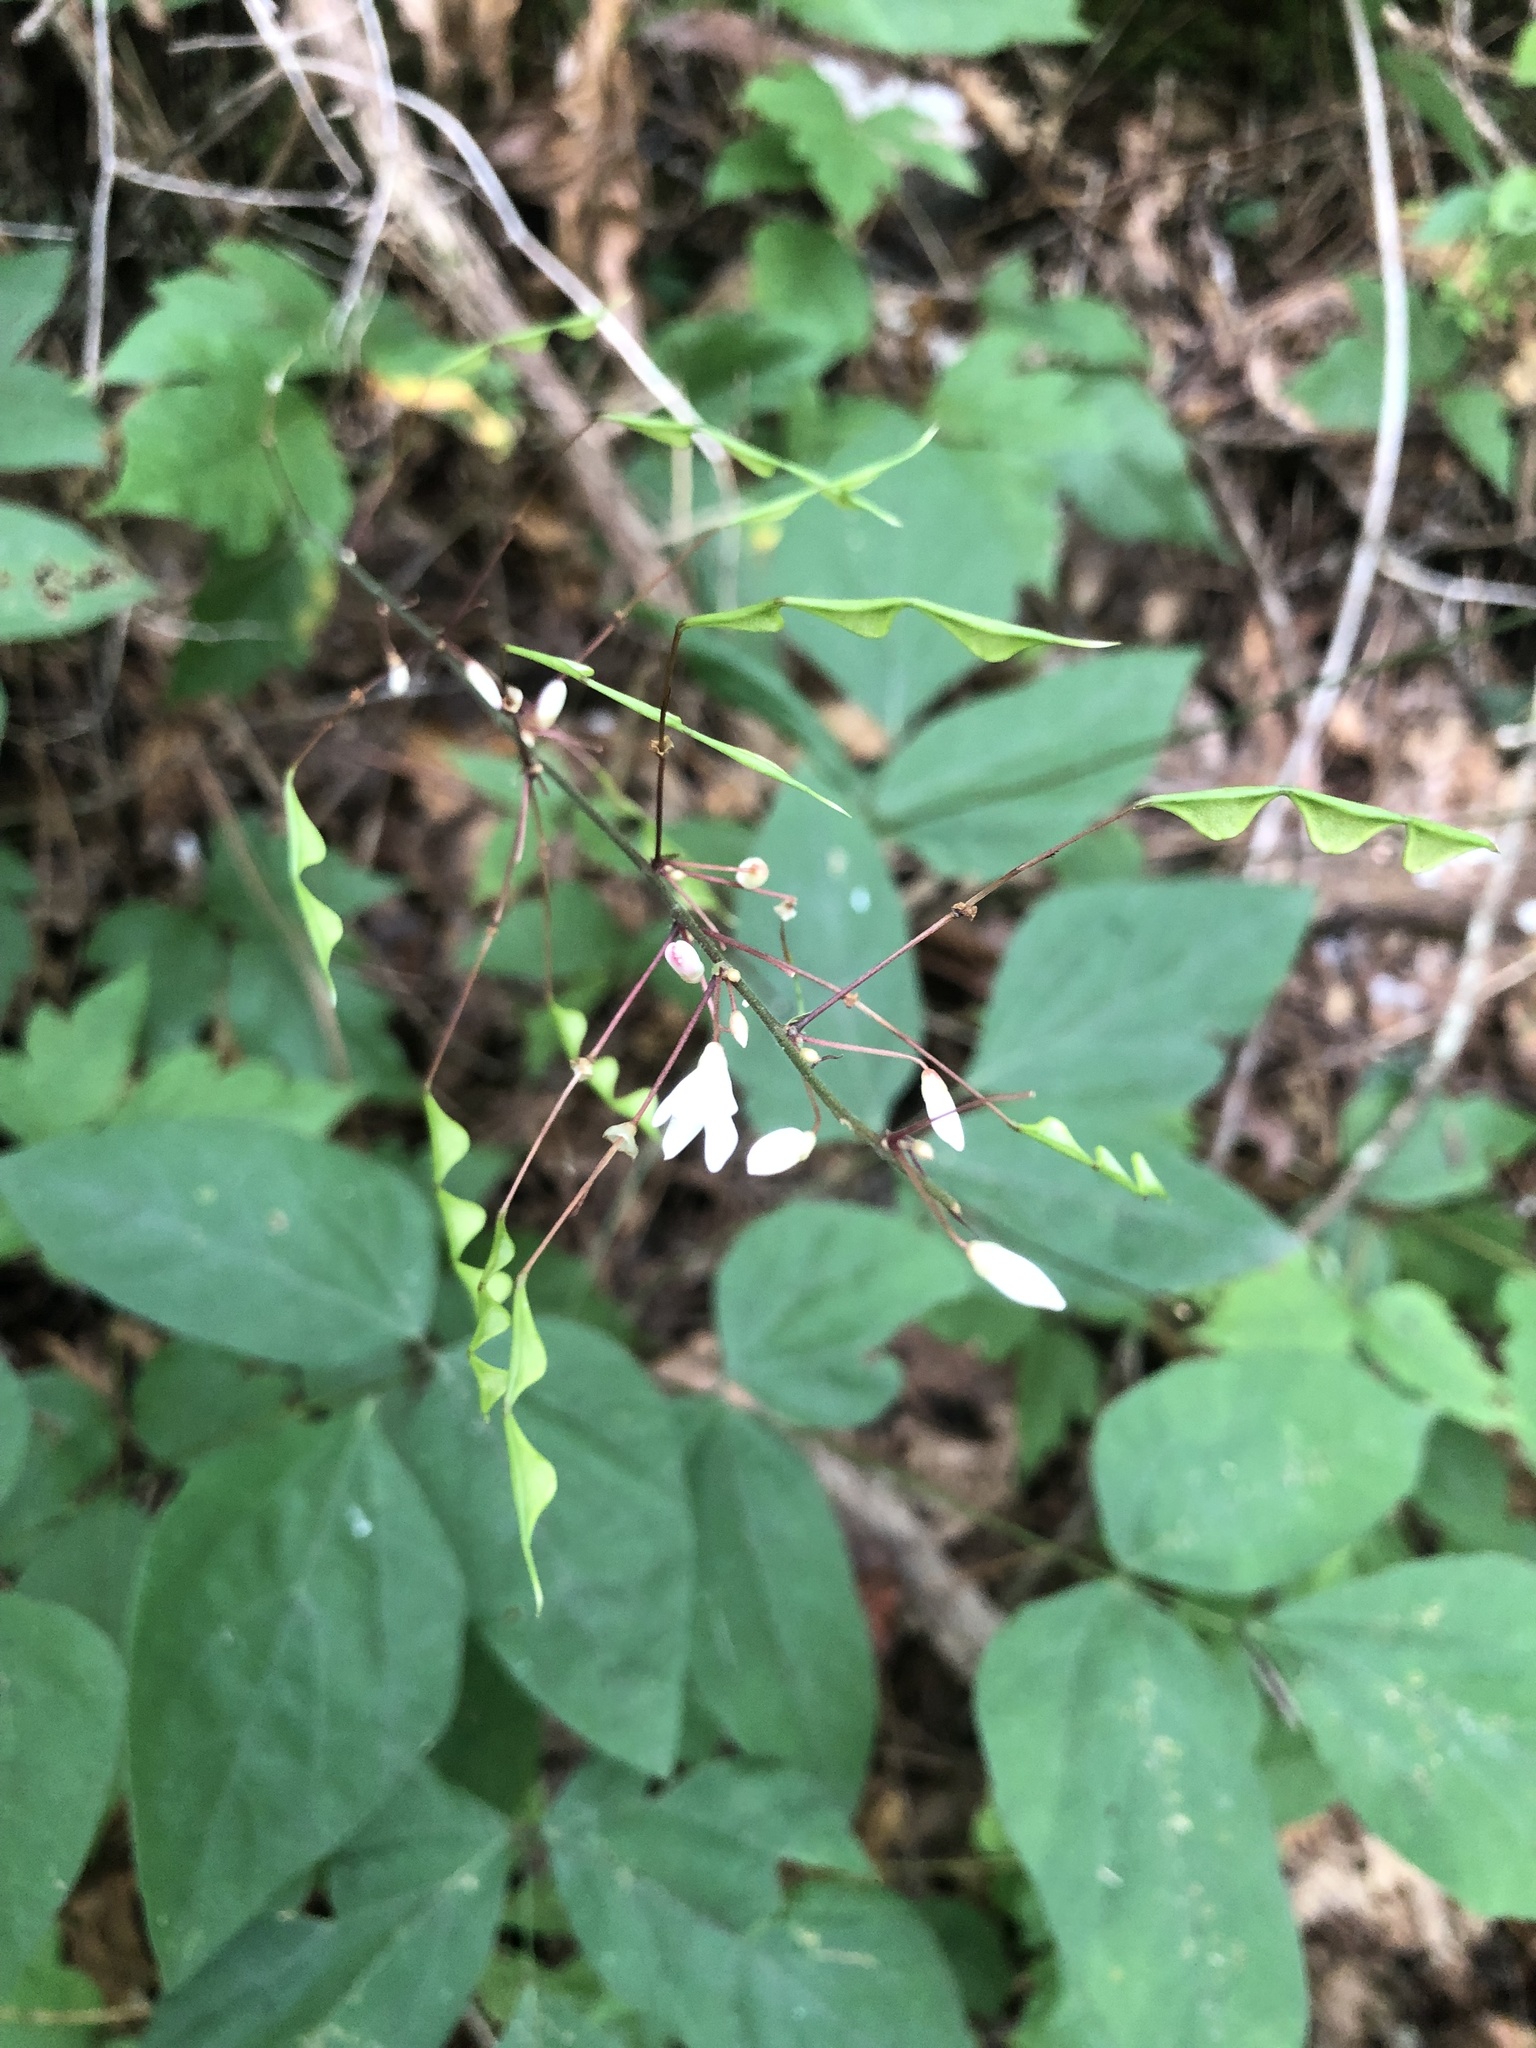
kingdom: Plantae
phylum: Tracheophyta
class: Magnoliopsida
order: Fabales
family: Fabaceae
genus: Hylodesmum
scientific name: Hylodesmum nudiflorum
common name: Bare-stemmed tick-trefoil
